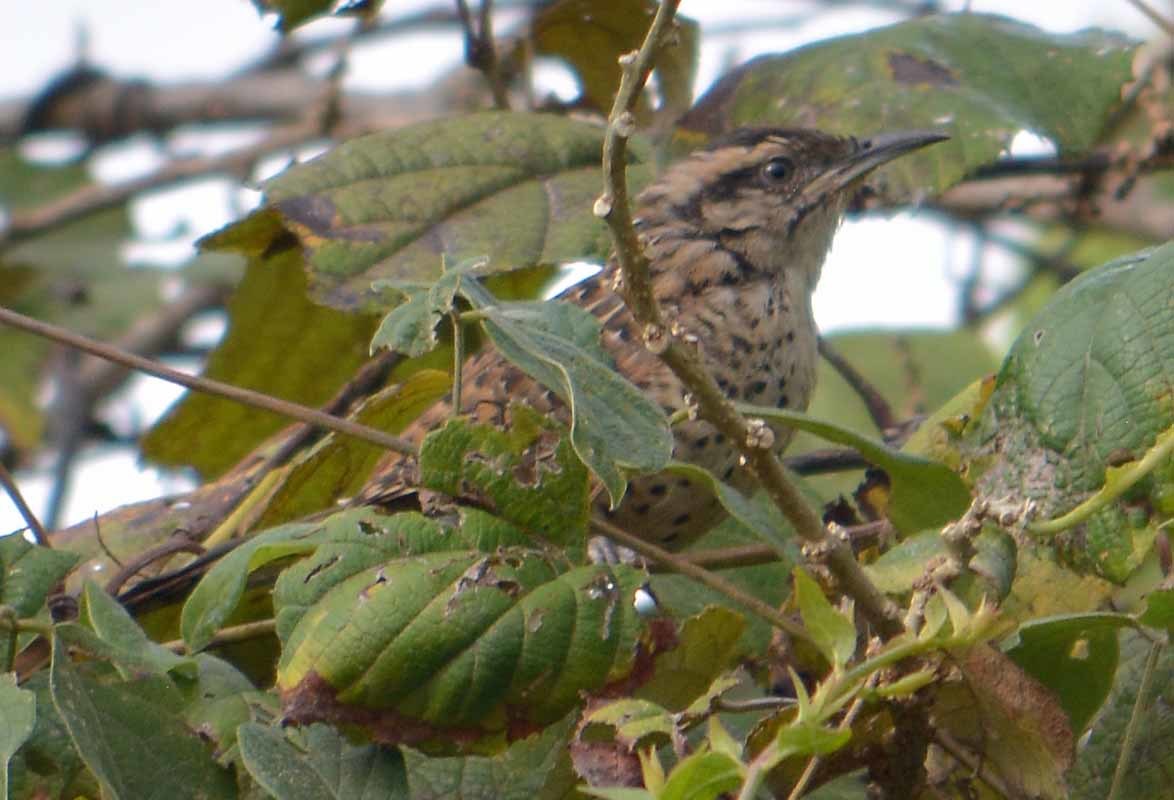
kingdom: Animalia
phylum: Chordata
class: Aves
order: Passeriformes
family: Troglodytidae
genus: Campylorhynchus
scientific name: Campylorhynchus gularis
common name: Spotted wren
